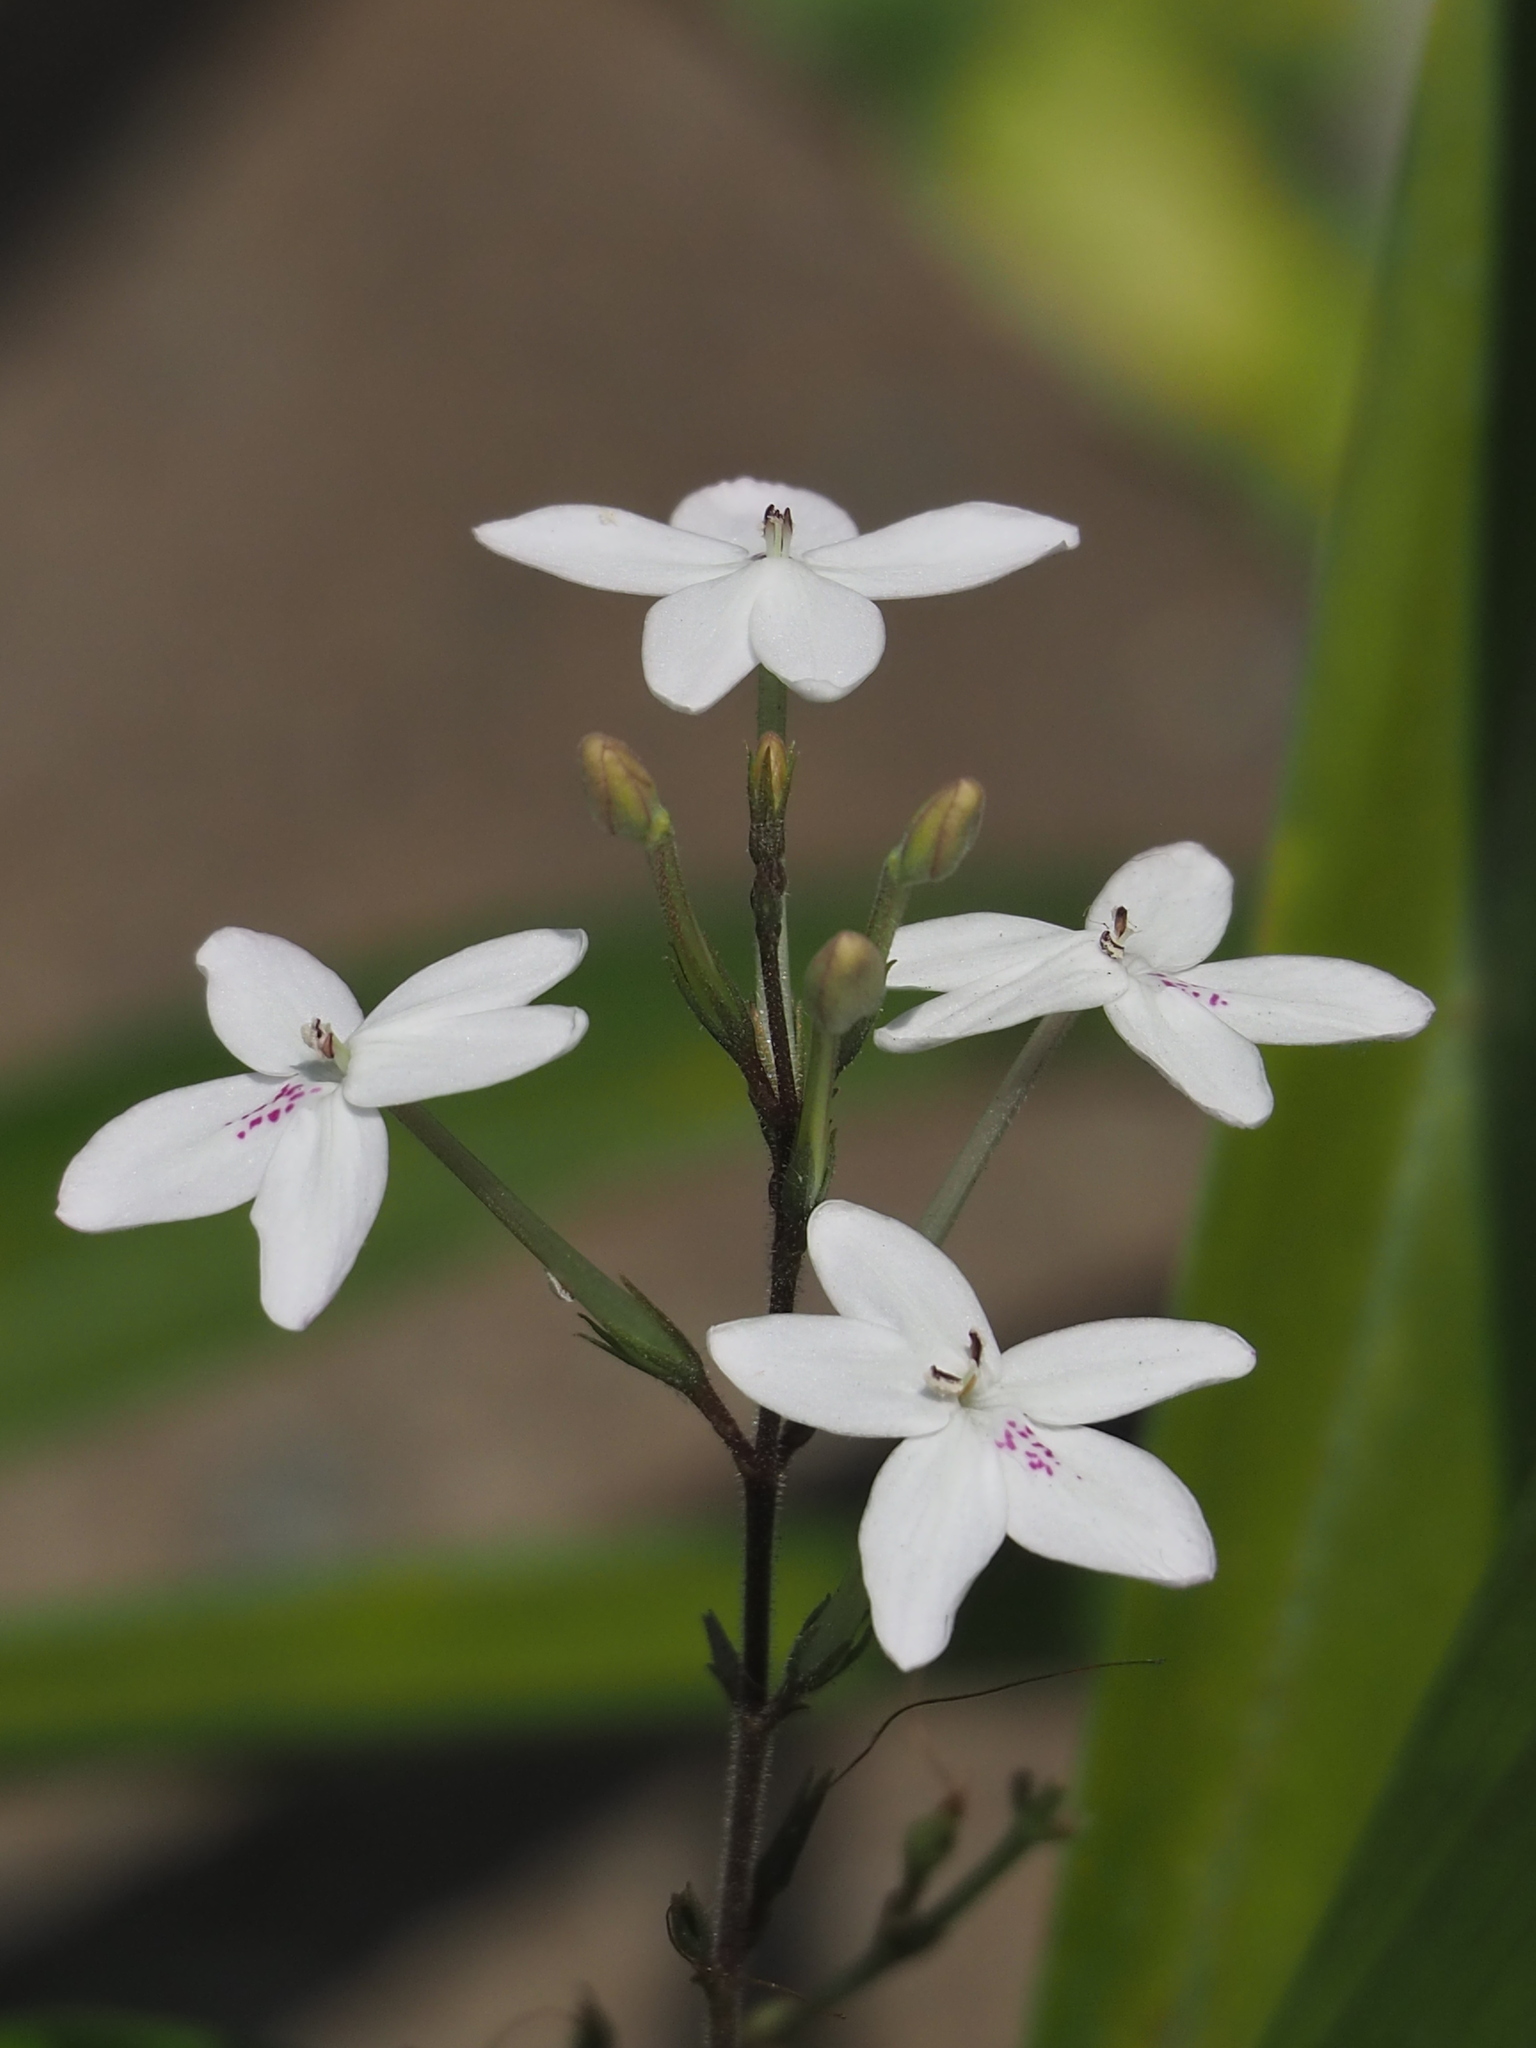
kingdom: Plantae
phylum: Tracheophyta
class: Magnoliopsida
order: Lamiales
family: Acanthaceae
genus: Pseuderanthemum
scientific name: Pseuderanthemum variabile
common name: Night and afternoon
